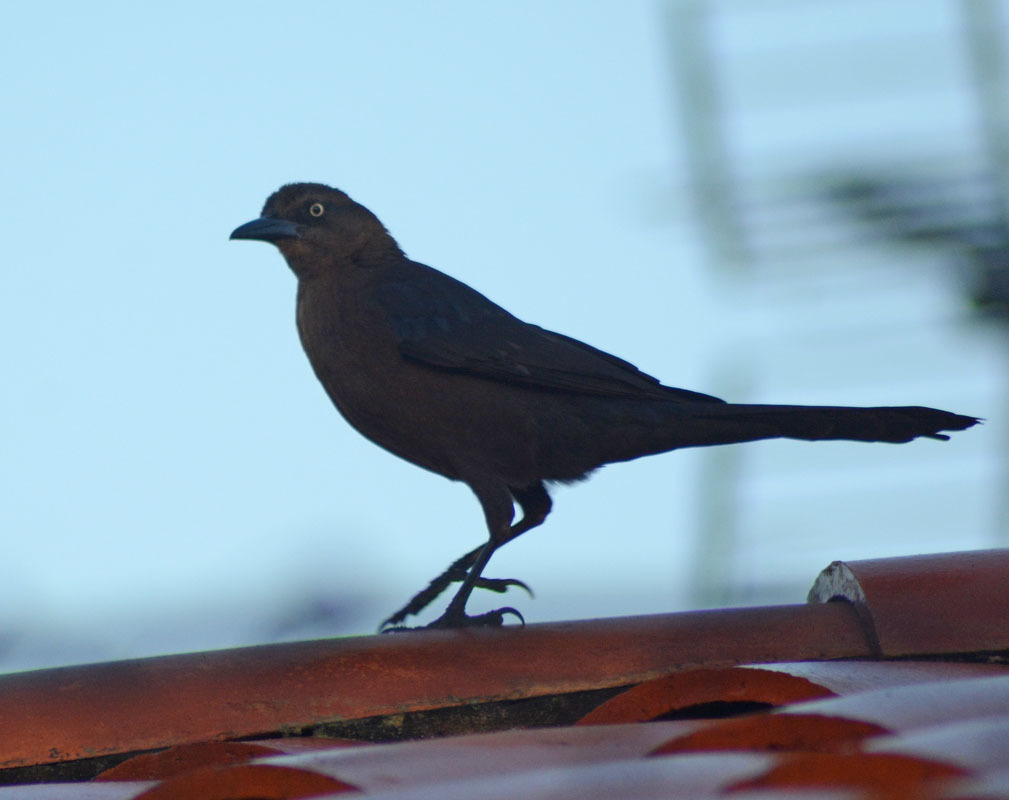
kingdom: Animalia
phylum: Chordata
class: Aves
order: Passeriformes
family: Icteridae
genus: Quiscalus
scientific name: Quiscalus mexicanus
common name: Great-tailed grackle
